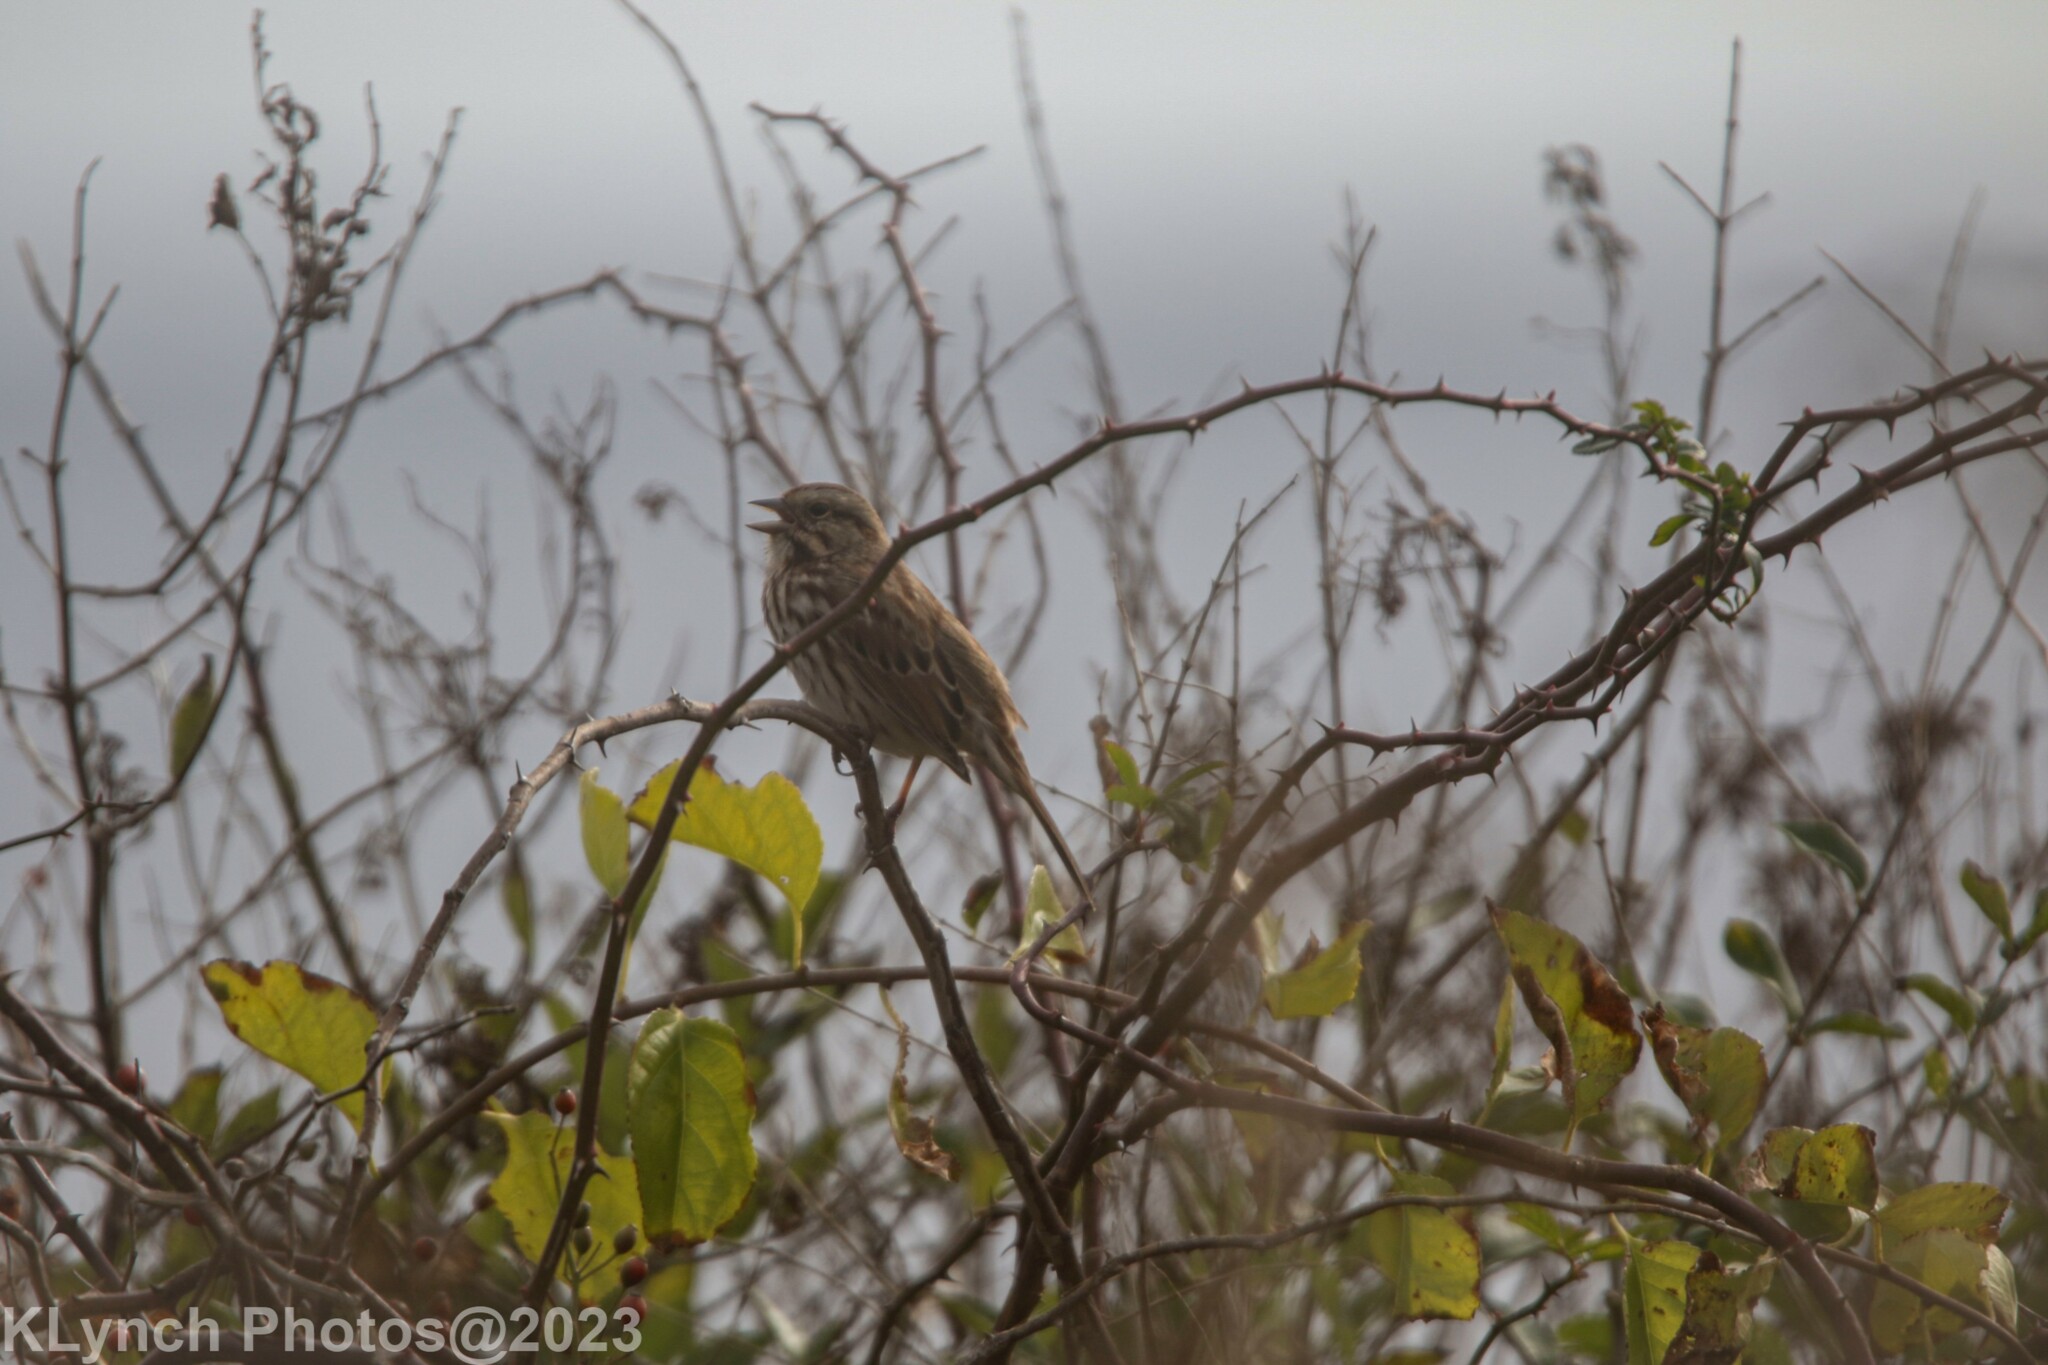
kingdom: Animalia
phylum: Chordata
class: Aves
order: Passeriformes
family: Passerellidae
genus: Melospiza
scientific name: Melospiza melodia
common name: Song sparrow
